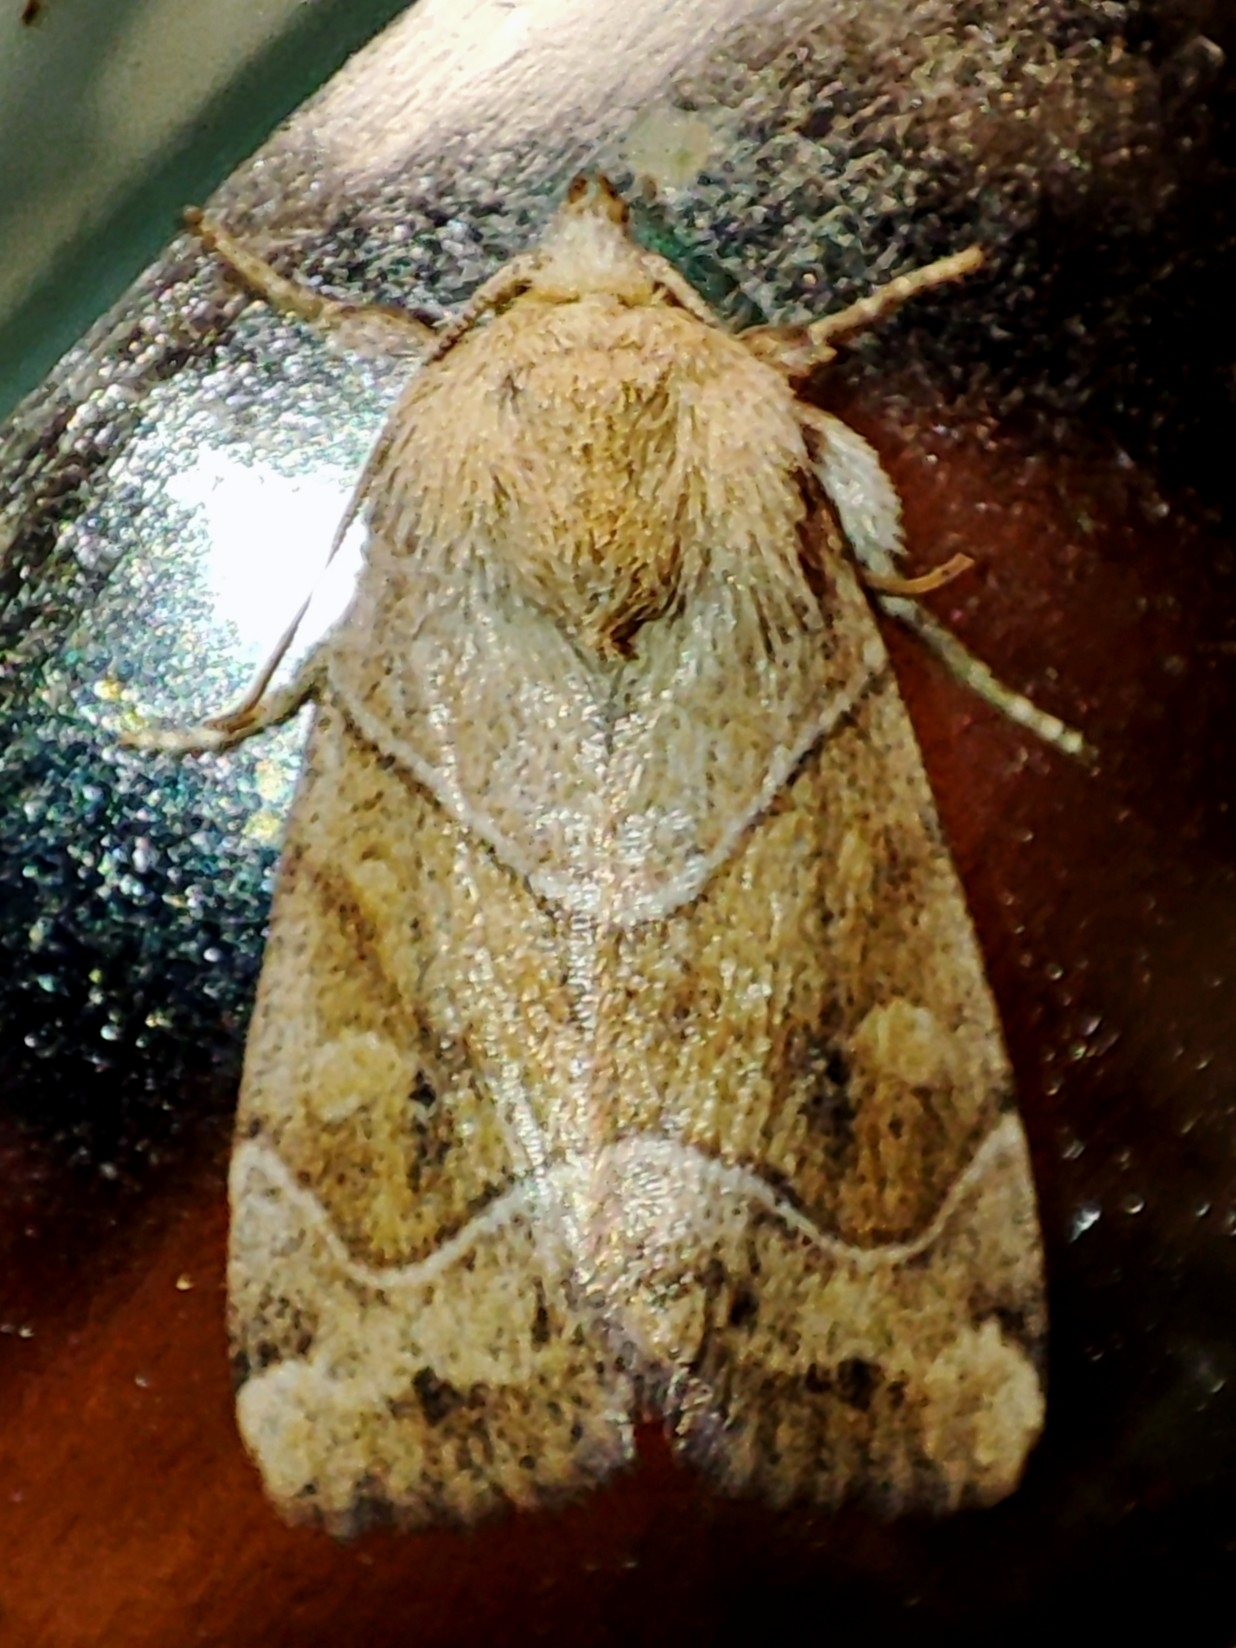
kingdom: Animalia
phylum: Arthropoda
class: Insecta
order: Lepidoptera
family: Noctuidae
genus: Cosmia
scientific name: Cosmia trapezina
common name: Dun-bar
